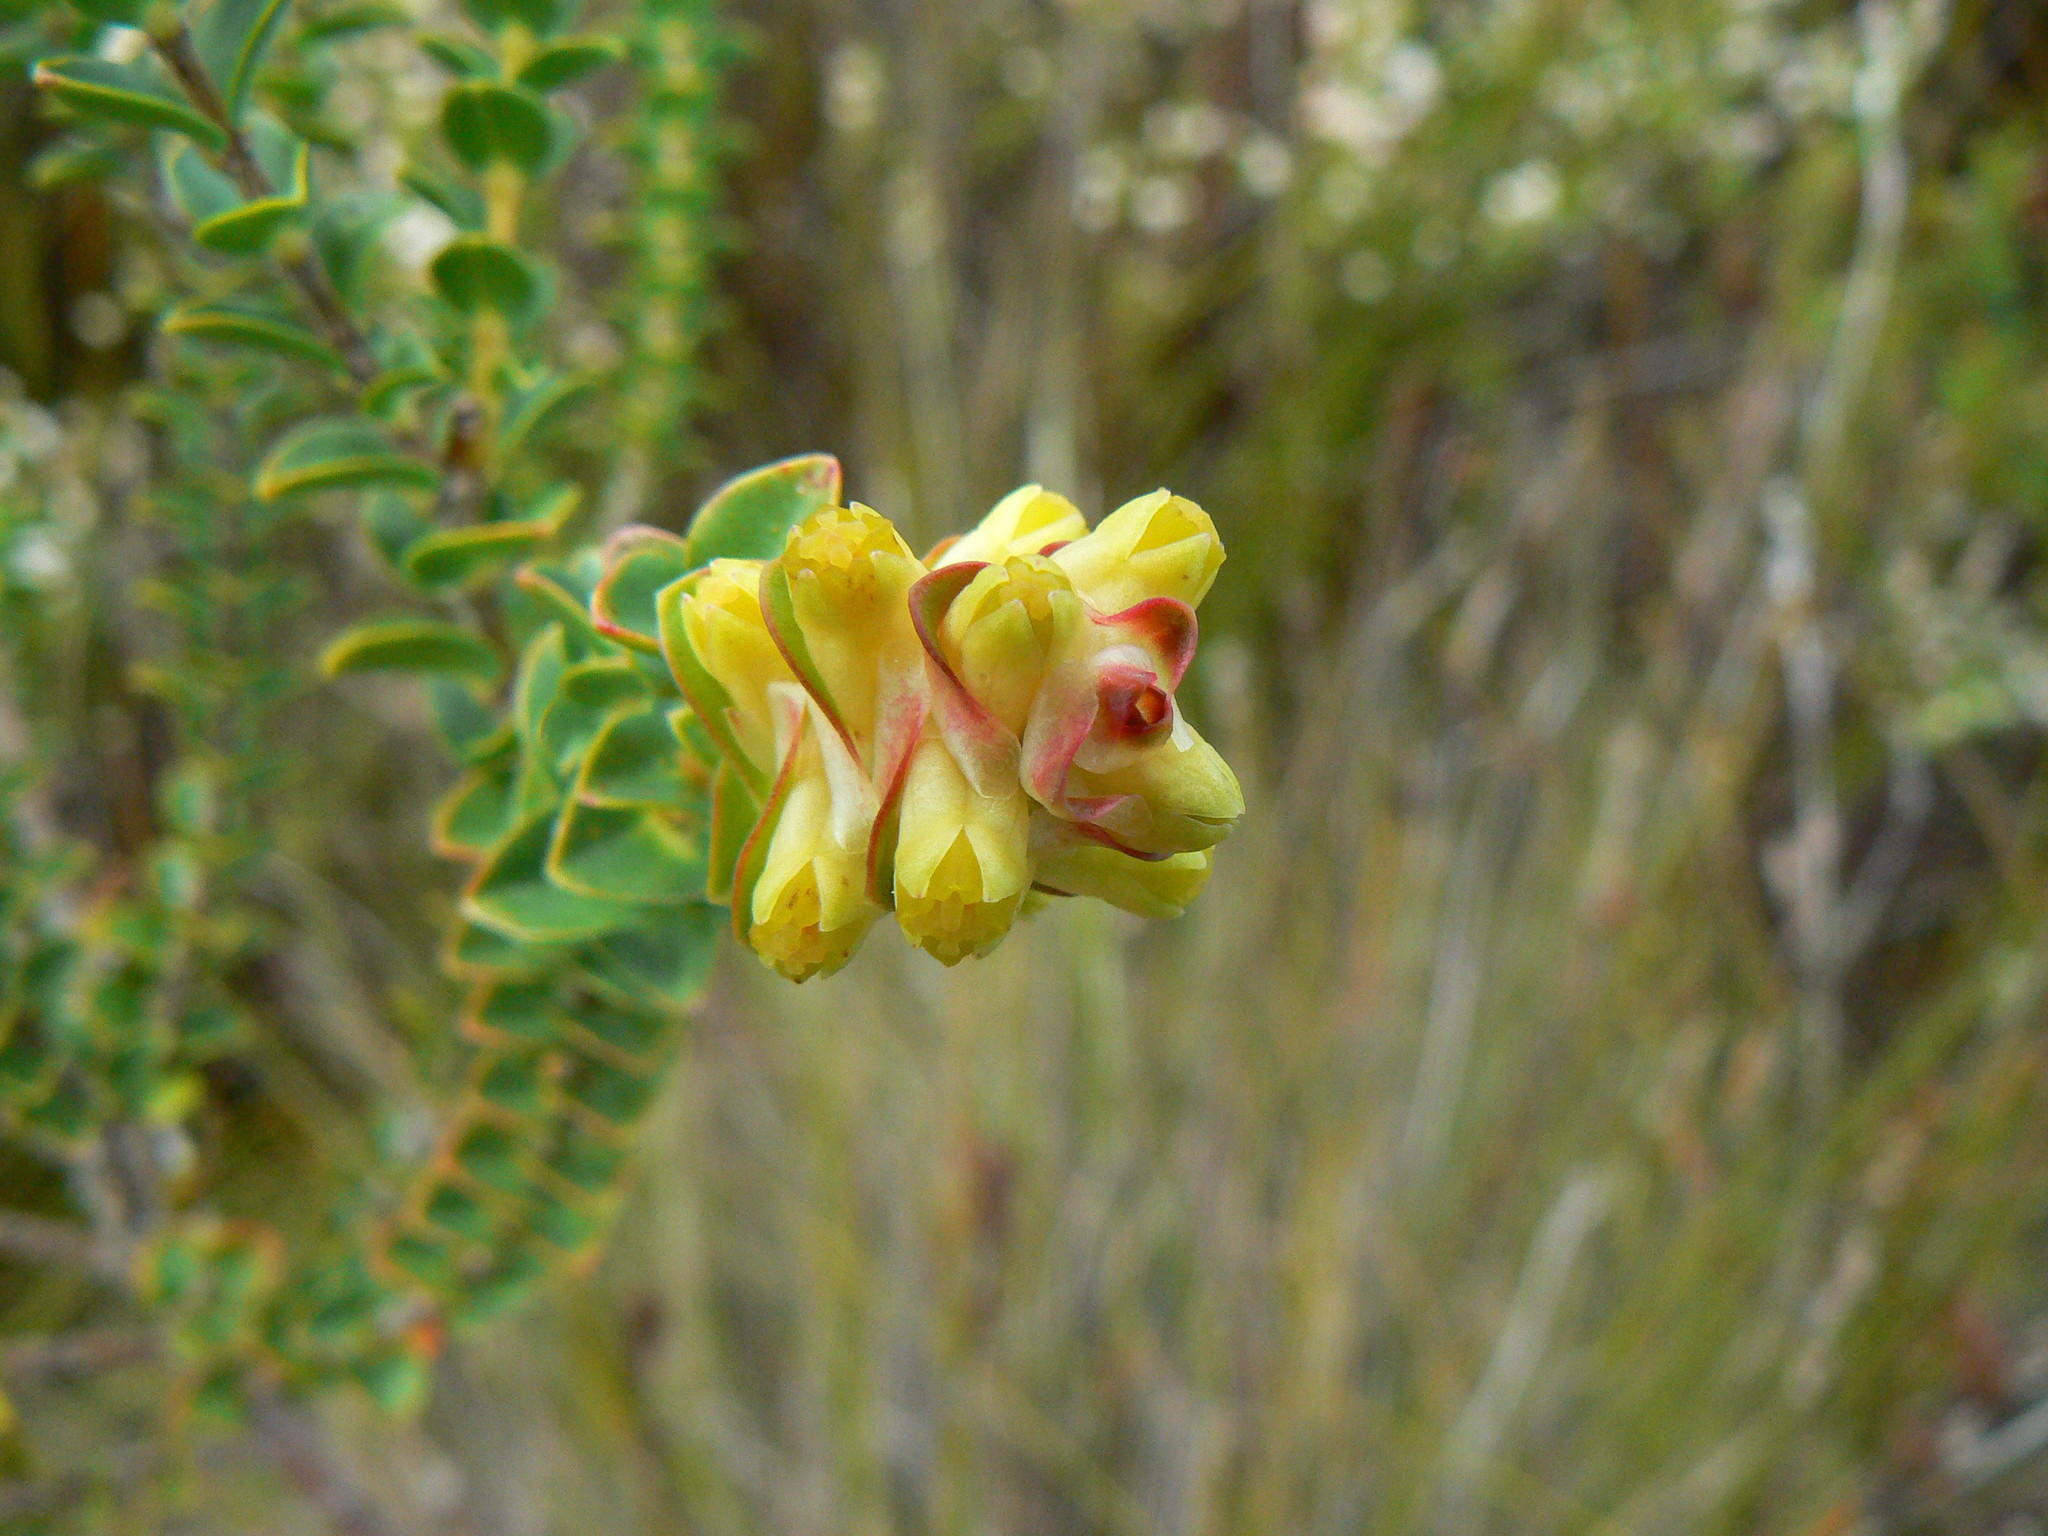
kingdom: Plantae
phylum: Tracheophyta
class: Magnoliopsida
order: Myrtales
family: Penaeaceae
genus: Penaea
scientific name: Penaea cneorum
